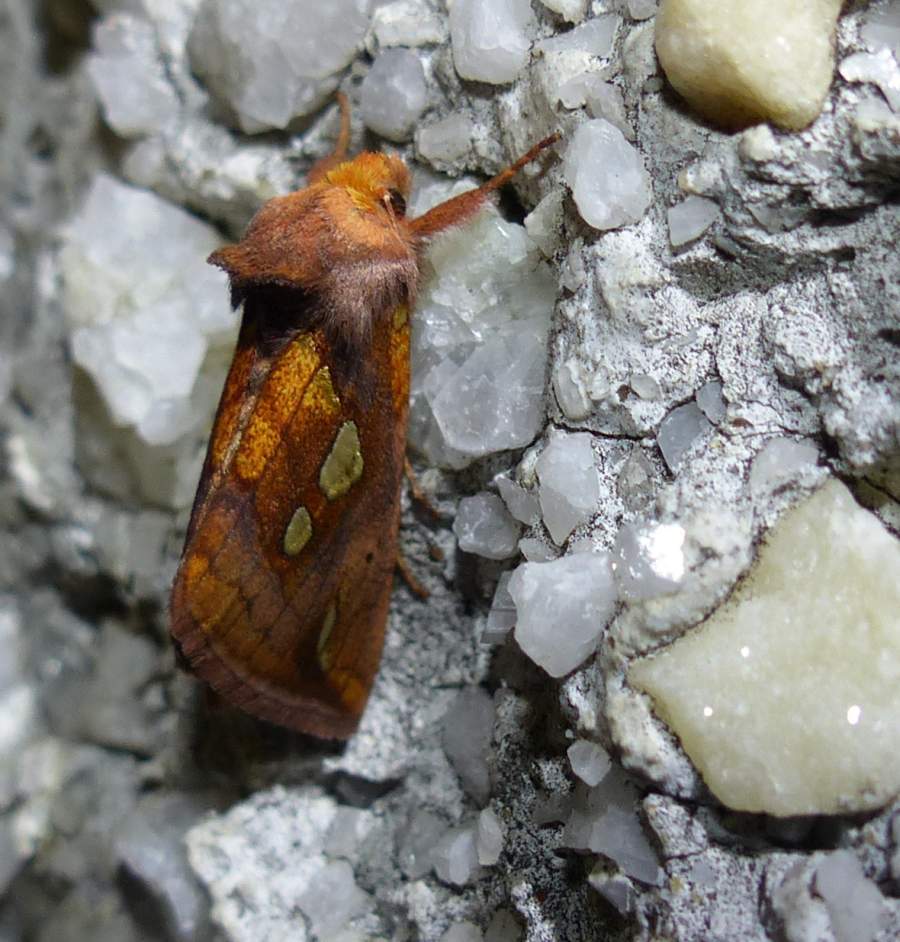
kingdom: Animalia
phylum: Arthropoda
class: Insecta
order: Lepidoptera
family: Noctuidae
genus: Plusia
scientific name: Plusia putnami
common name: Lempke's gold spot
